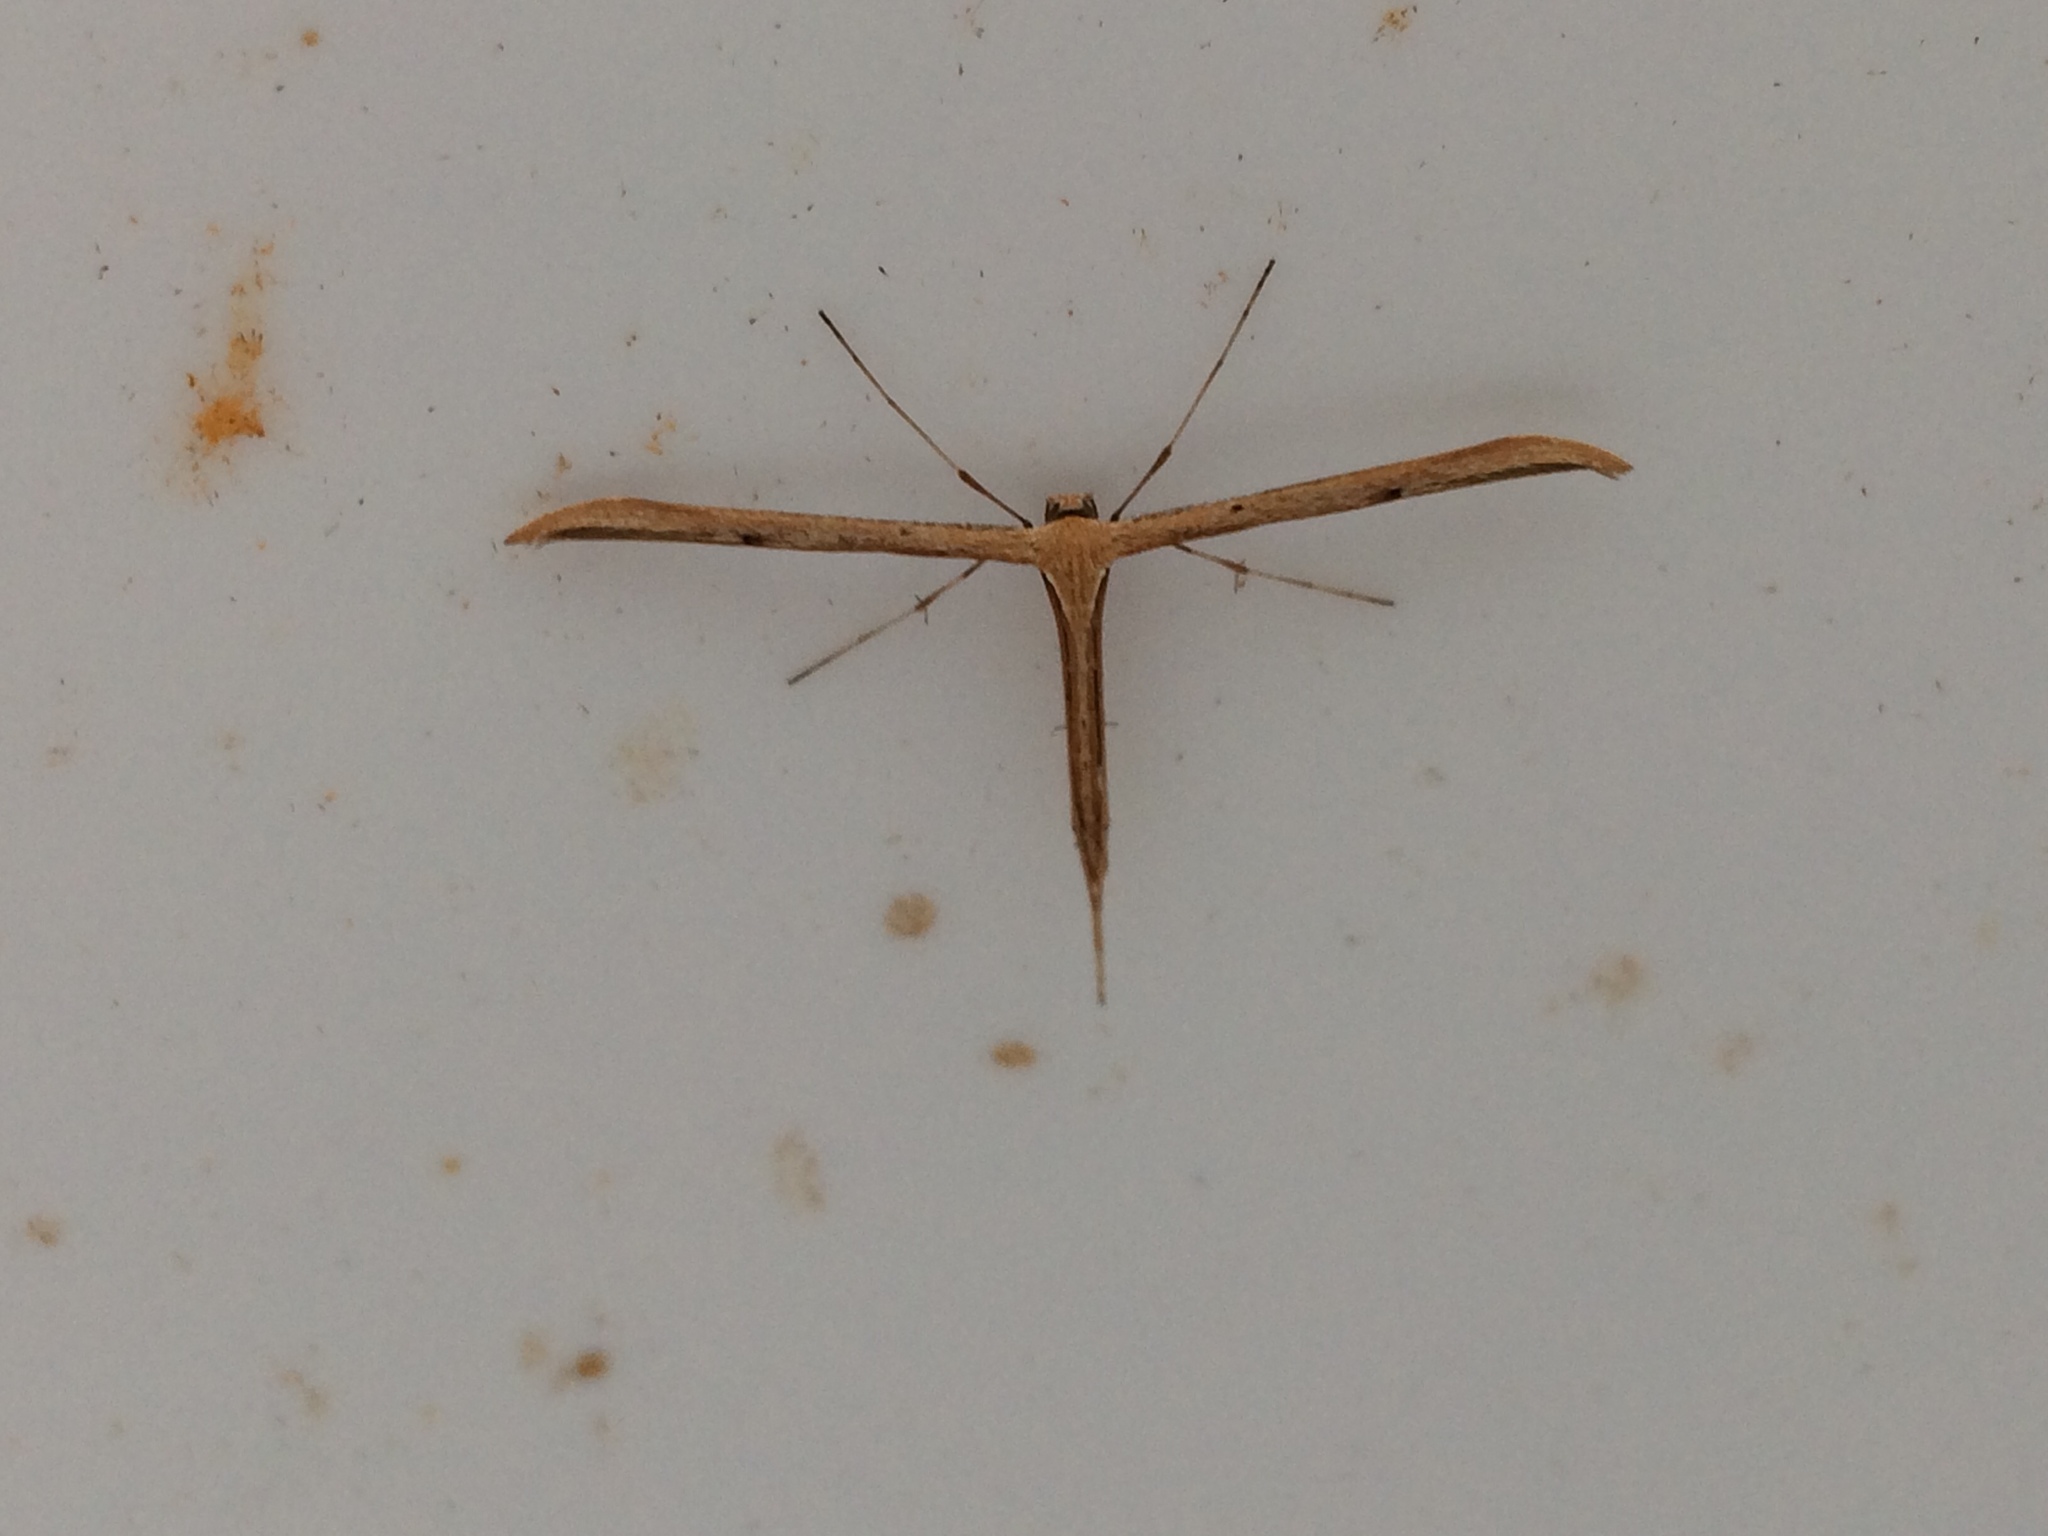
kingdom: Animalia
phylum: Arthropoda
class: Insecta
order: Lepidoptera
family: Pterophoridae
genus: Emmelina
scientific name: Emmelina monodactyla
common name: Common plume
